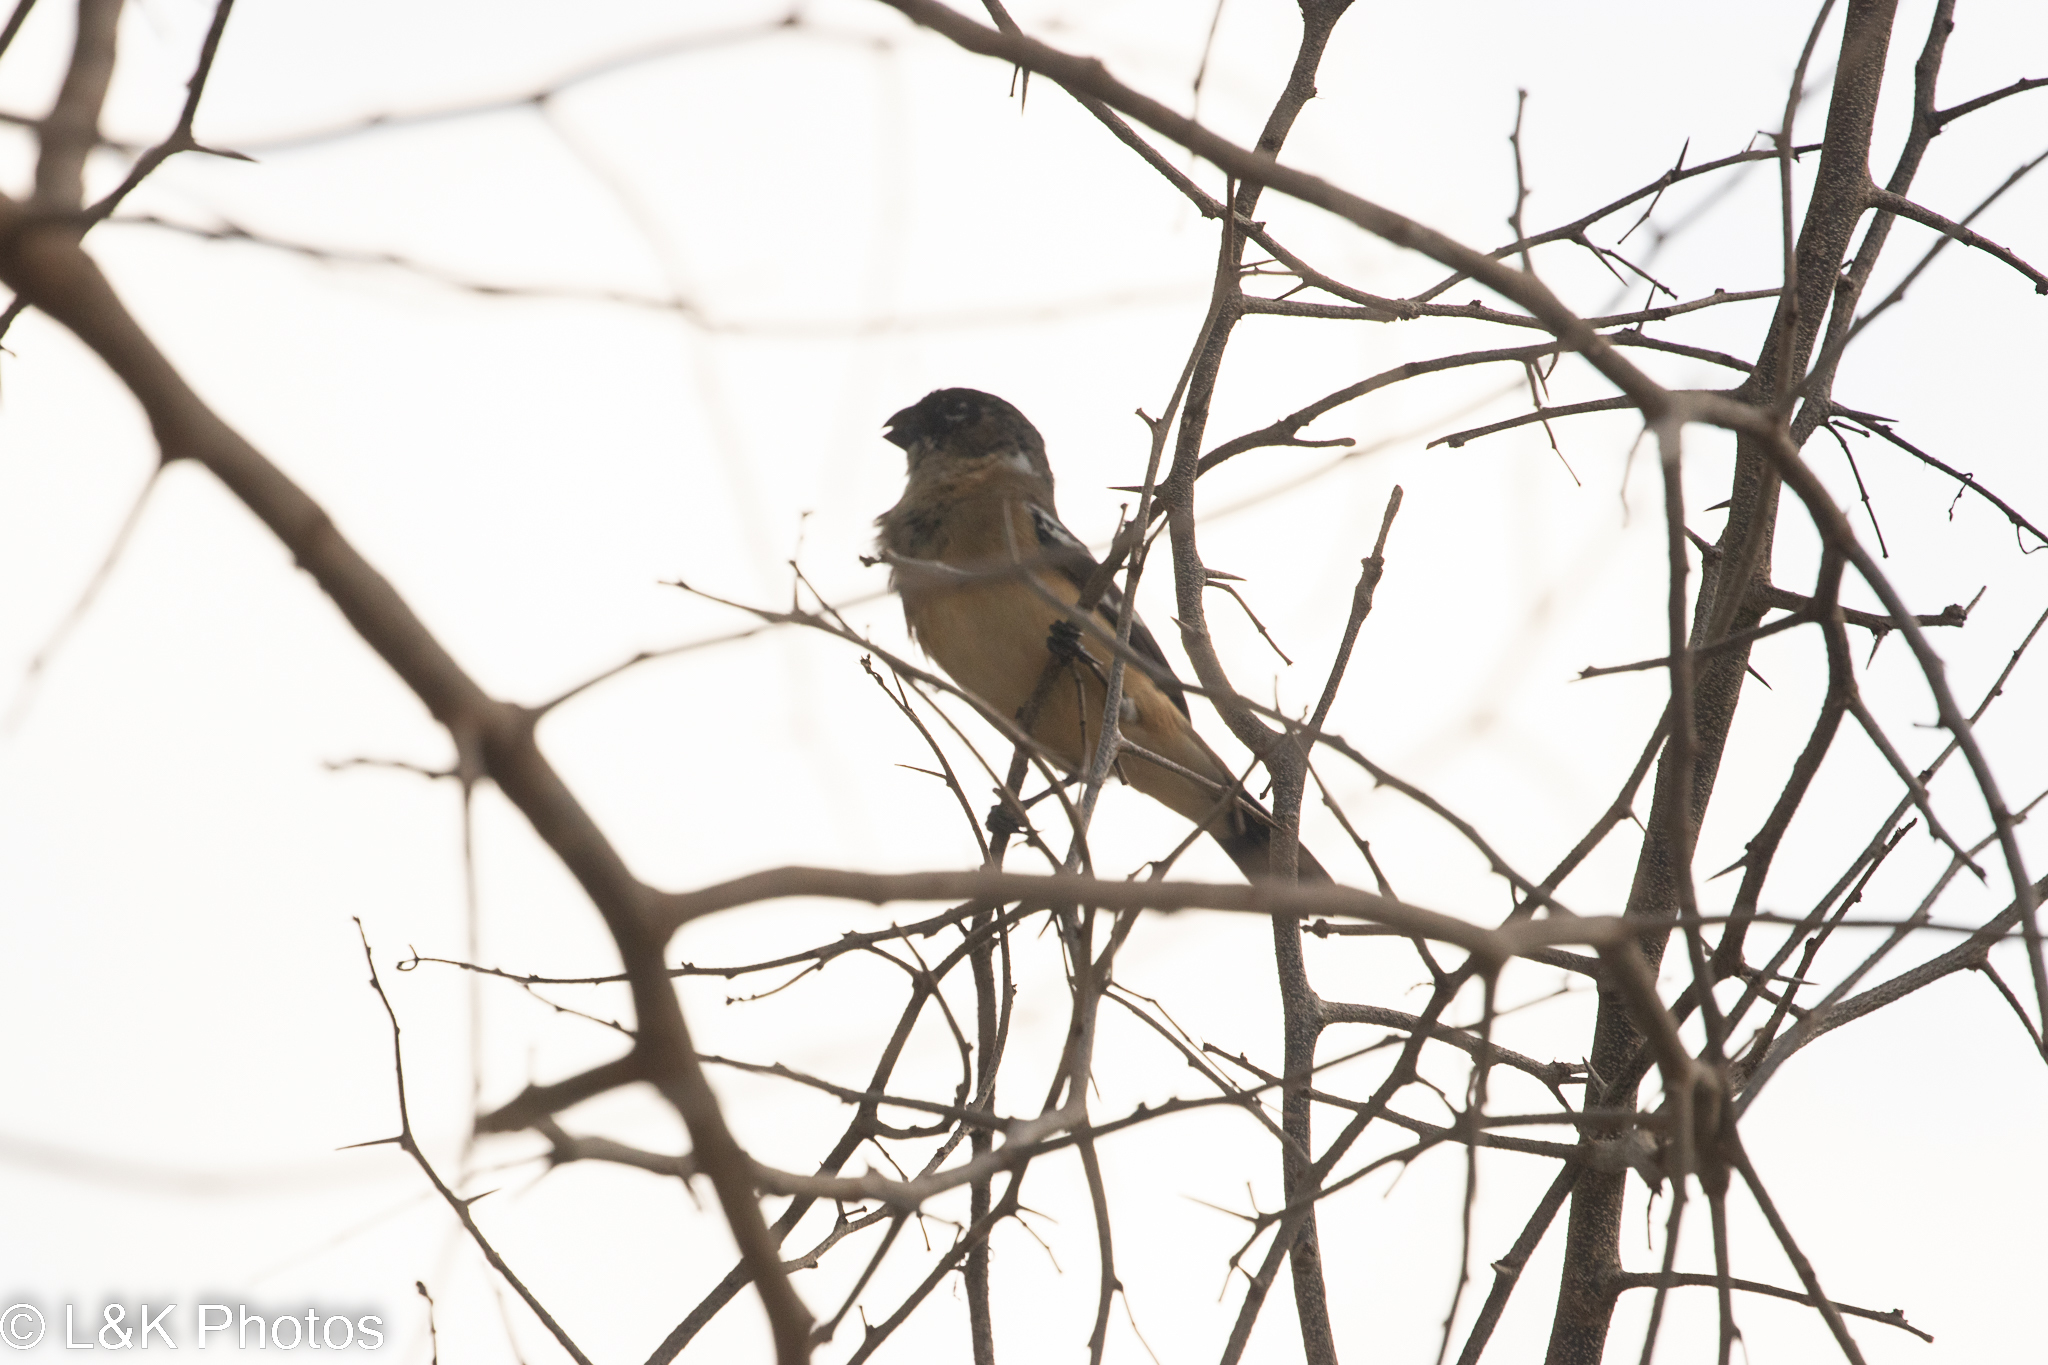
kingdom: Animalia
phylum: Chordata
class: Aves
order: Passeriformes
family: Thraupidae
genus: Sporophila
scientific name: Sporophila morelleti
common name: Morelet's seedeater
